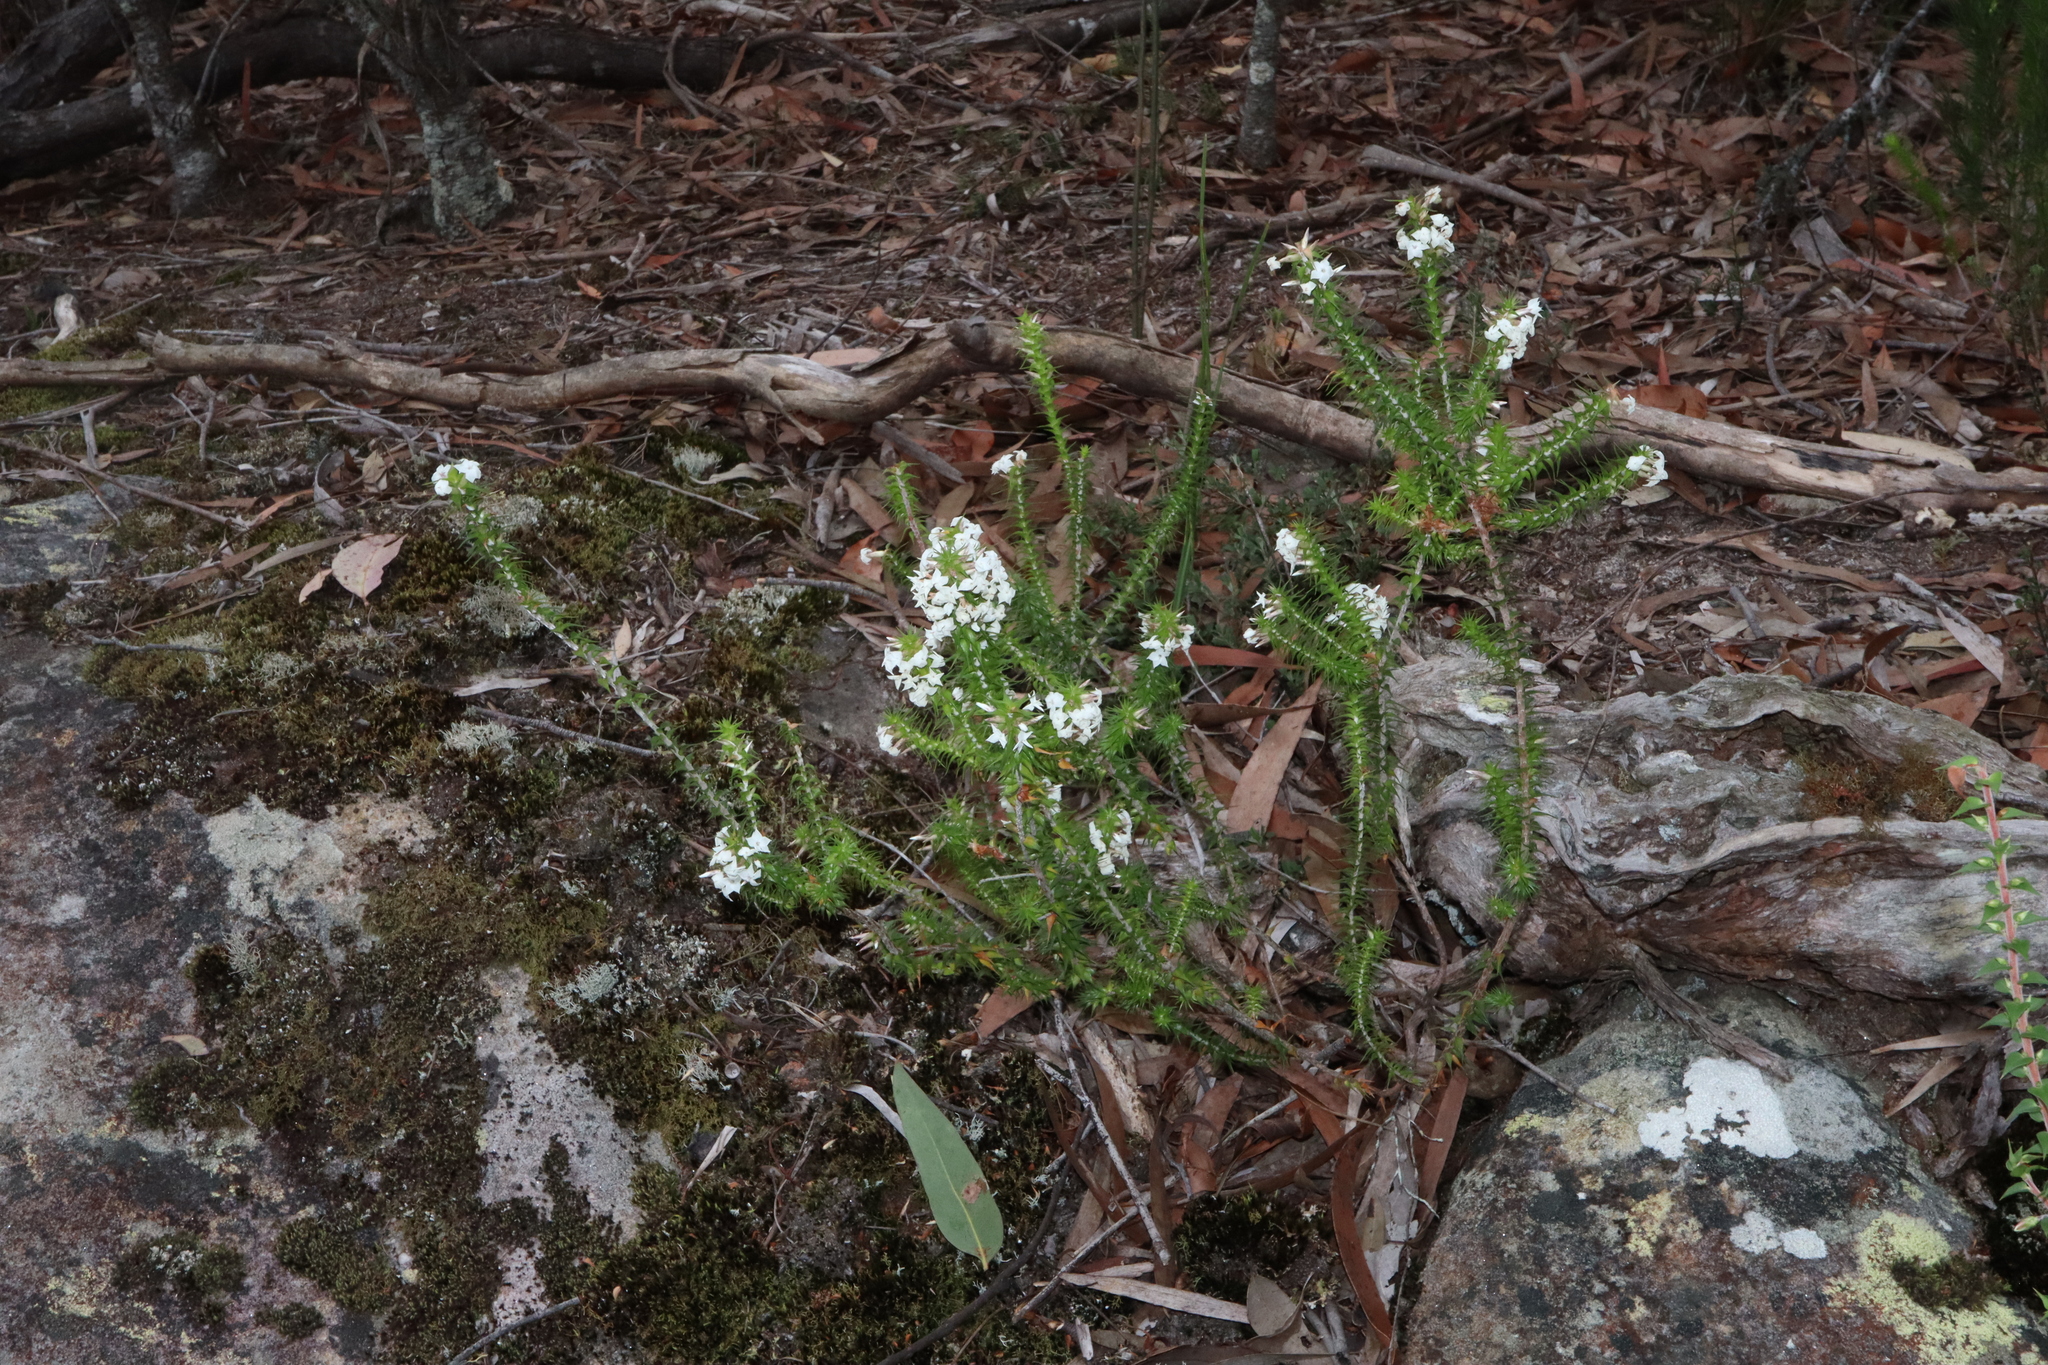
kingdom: Plantae
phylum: Tracheophyta
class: Magnoliopsida
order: Ericales
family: Ericaceae
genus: Woollsia
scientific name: Woollsia pungens
